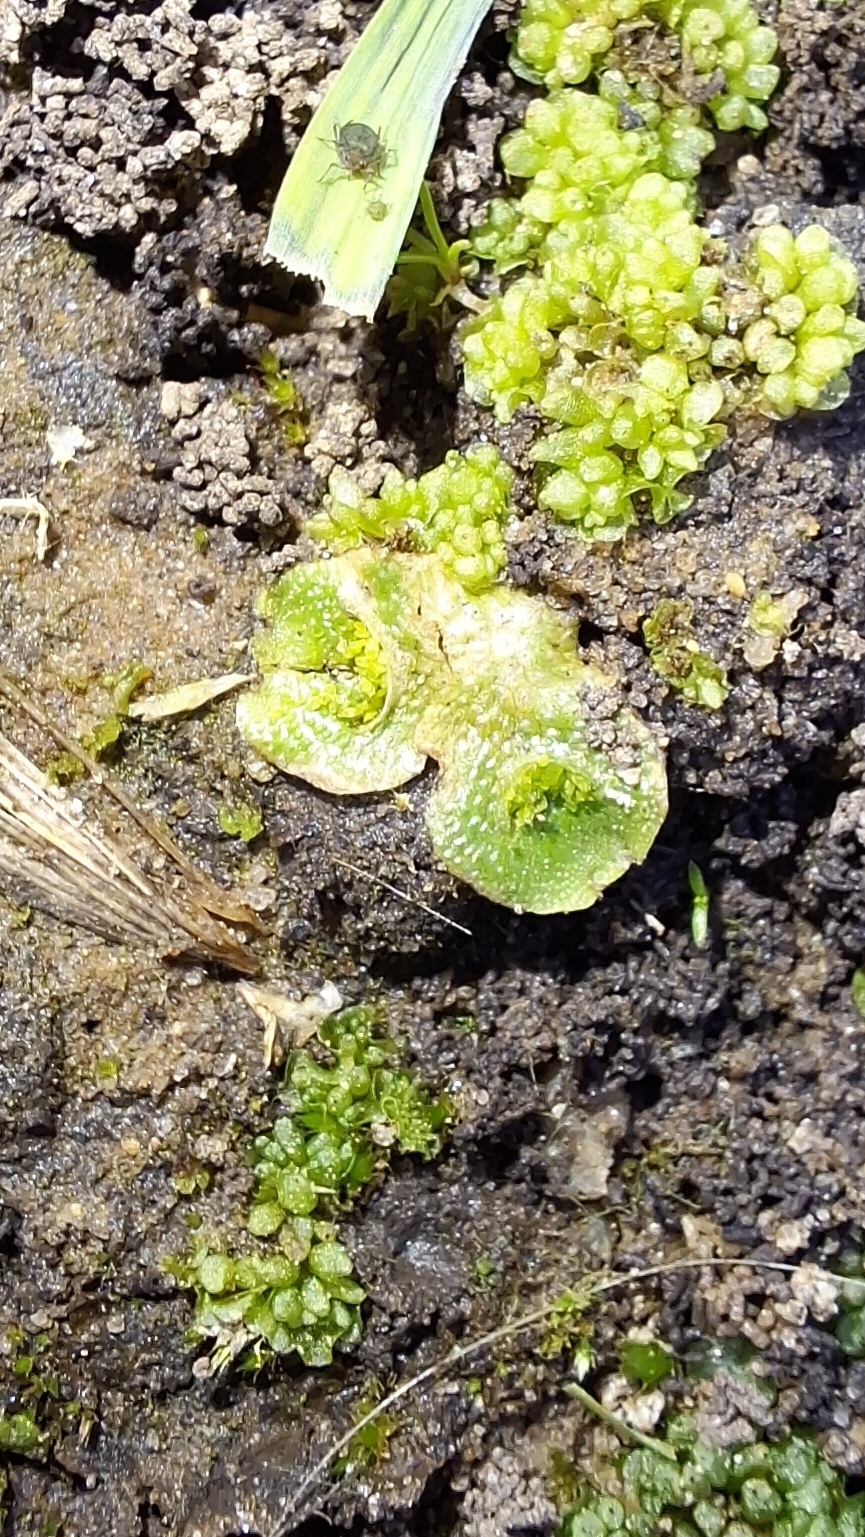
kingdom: Plantae
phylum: Marchantiophyta
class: Marchantiopsida
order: Lunulariales
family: Lunulariaceae
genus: Lunularia
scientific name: Lunularia cruciata
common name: Crescent-cup liverwort
